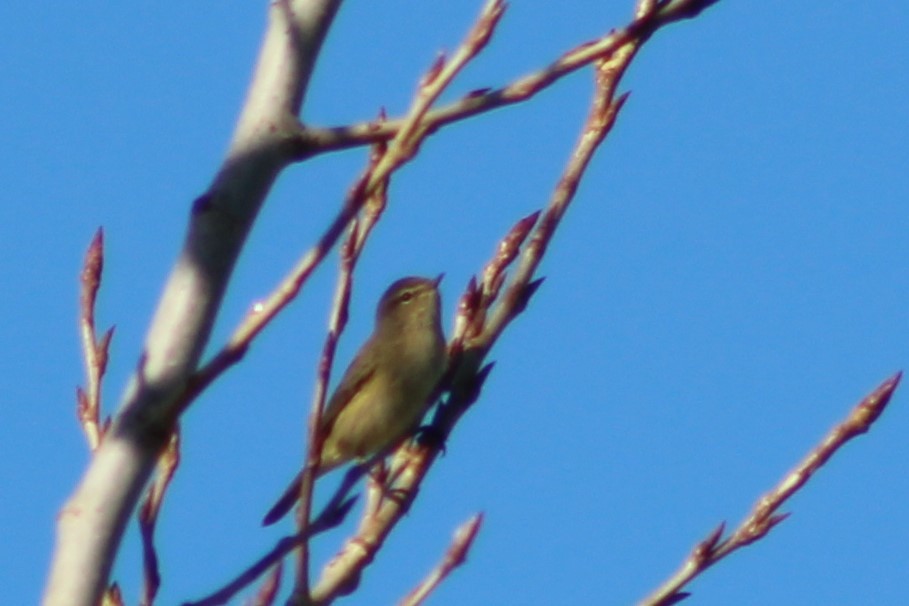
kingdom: Animalia
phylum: Chordata
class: Aves
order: Passeriformes
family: Phylloscopidae
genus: Phylloscopus
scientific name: Phylloscopus collybita
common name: Common chiffchaff
